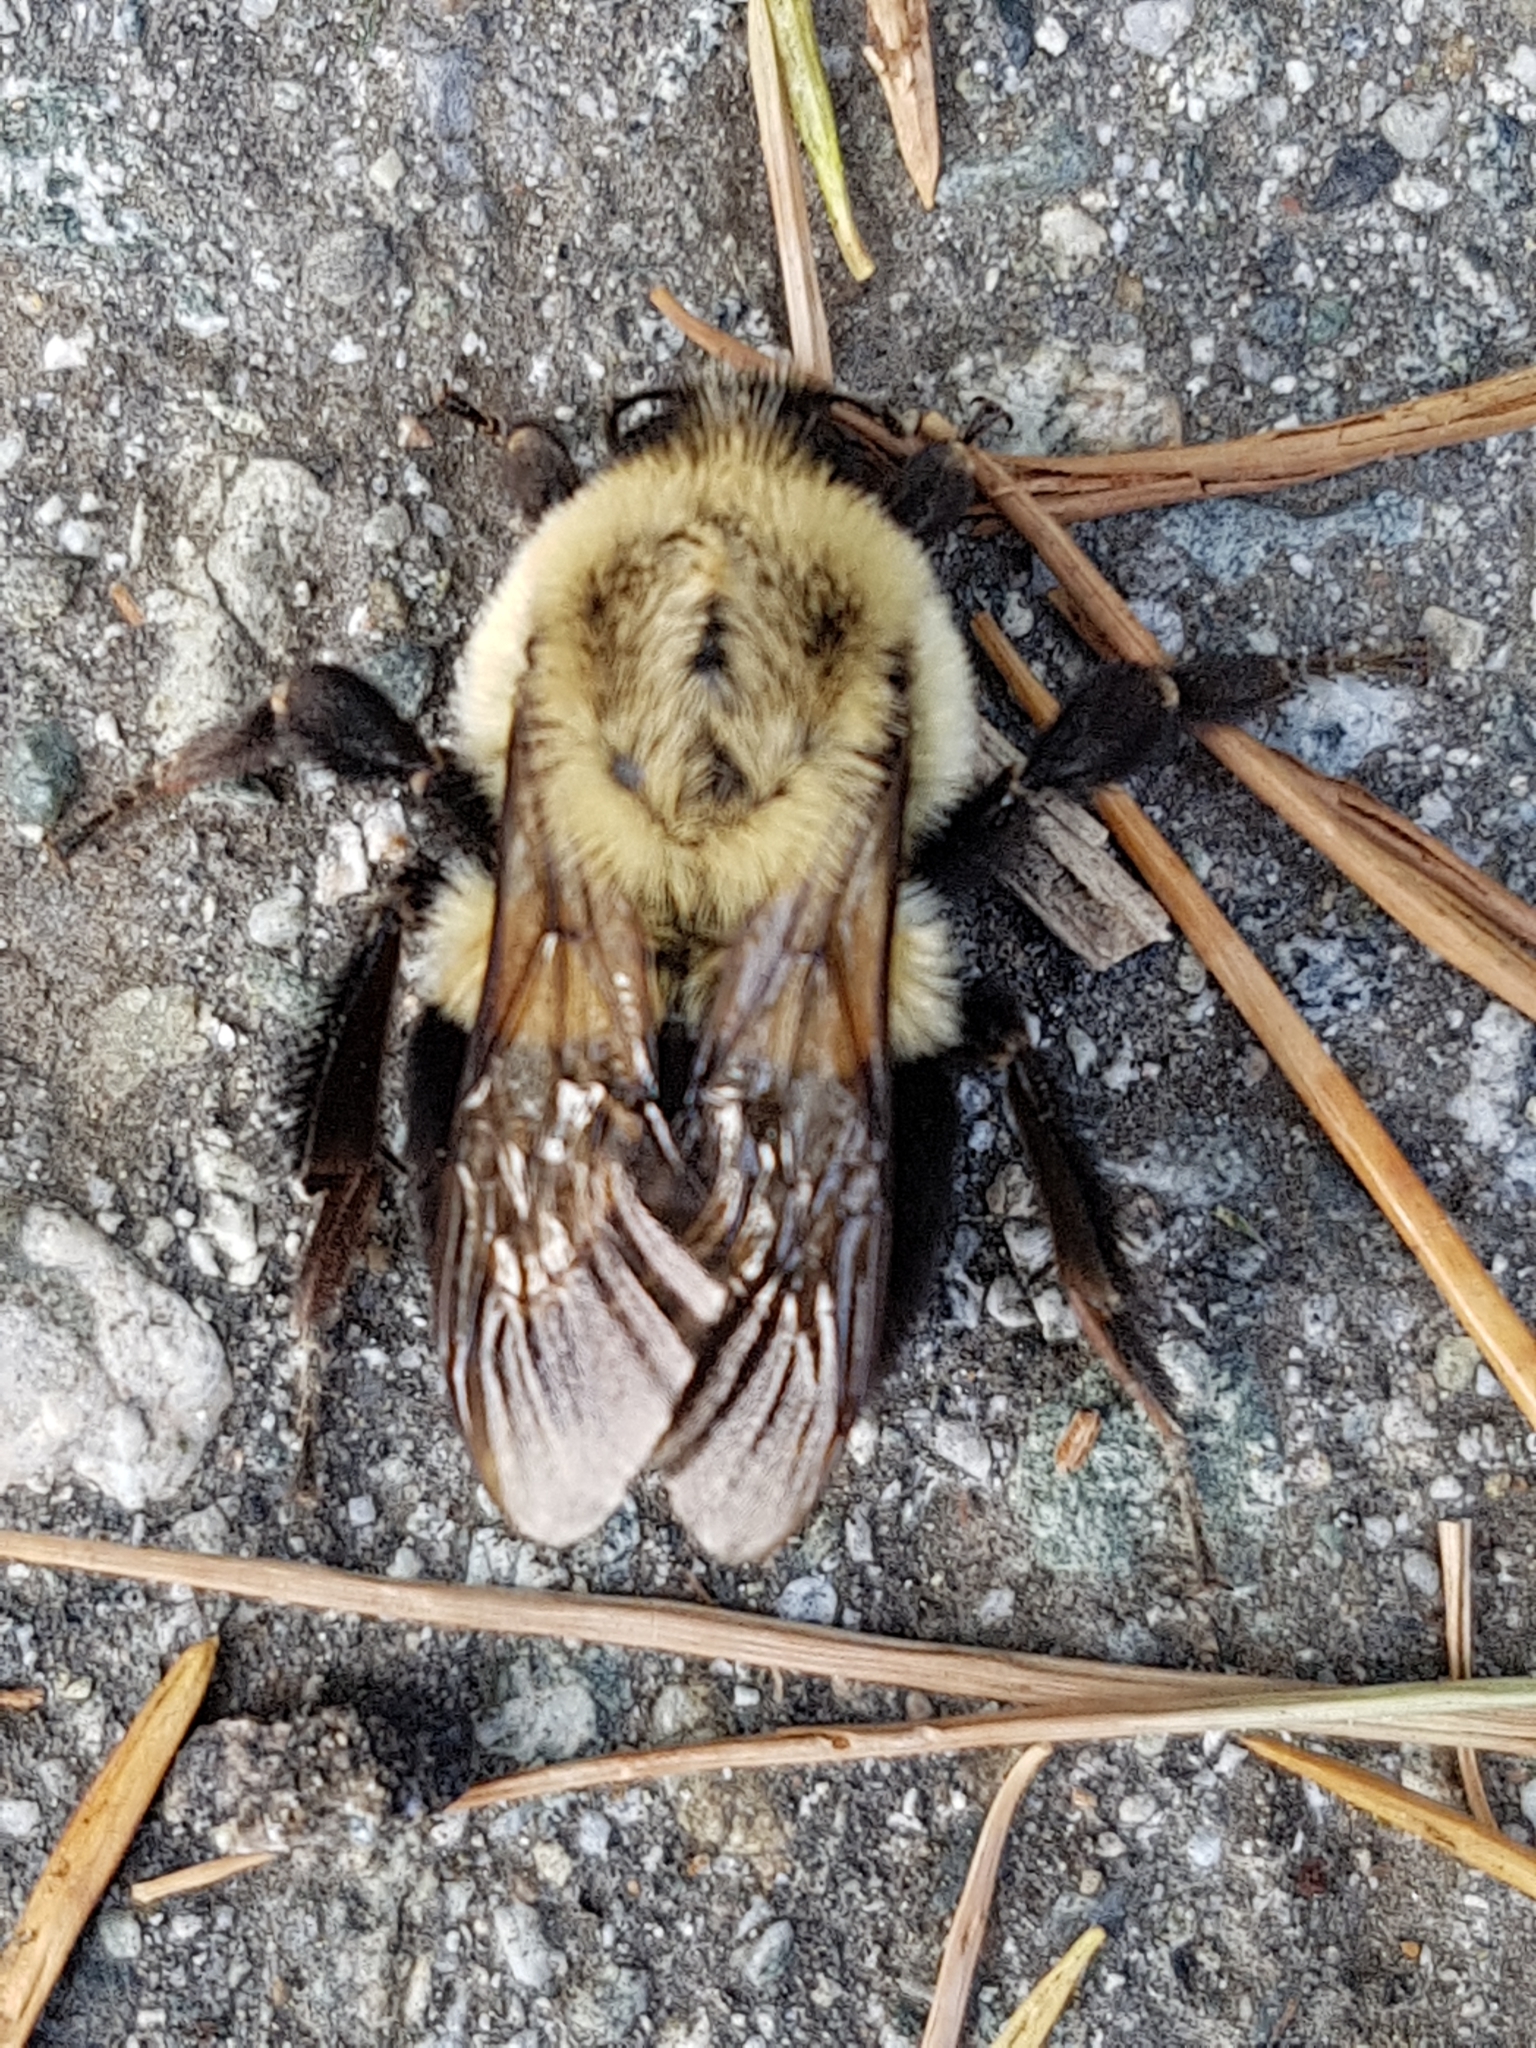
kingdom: Animalia
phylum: Arthropoda
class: Insecta
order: Hymenoptera
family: Apidae
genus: Bombus
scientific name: Bombus impatiens
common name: Common eastern bumble bee
